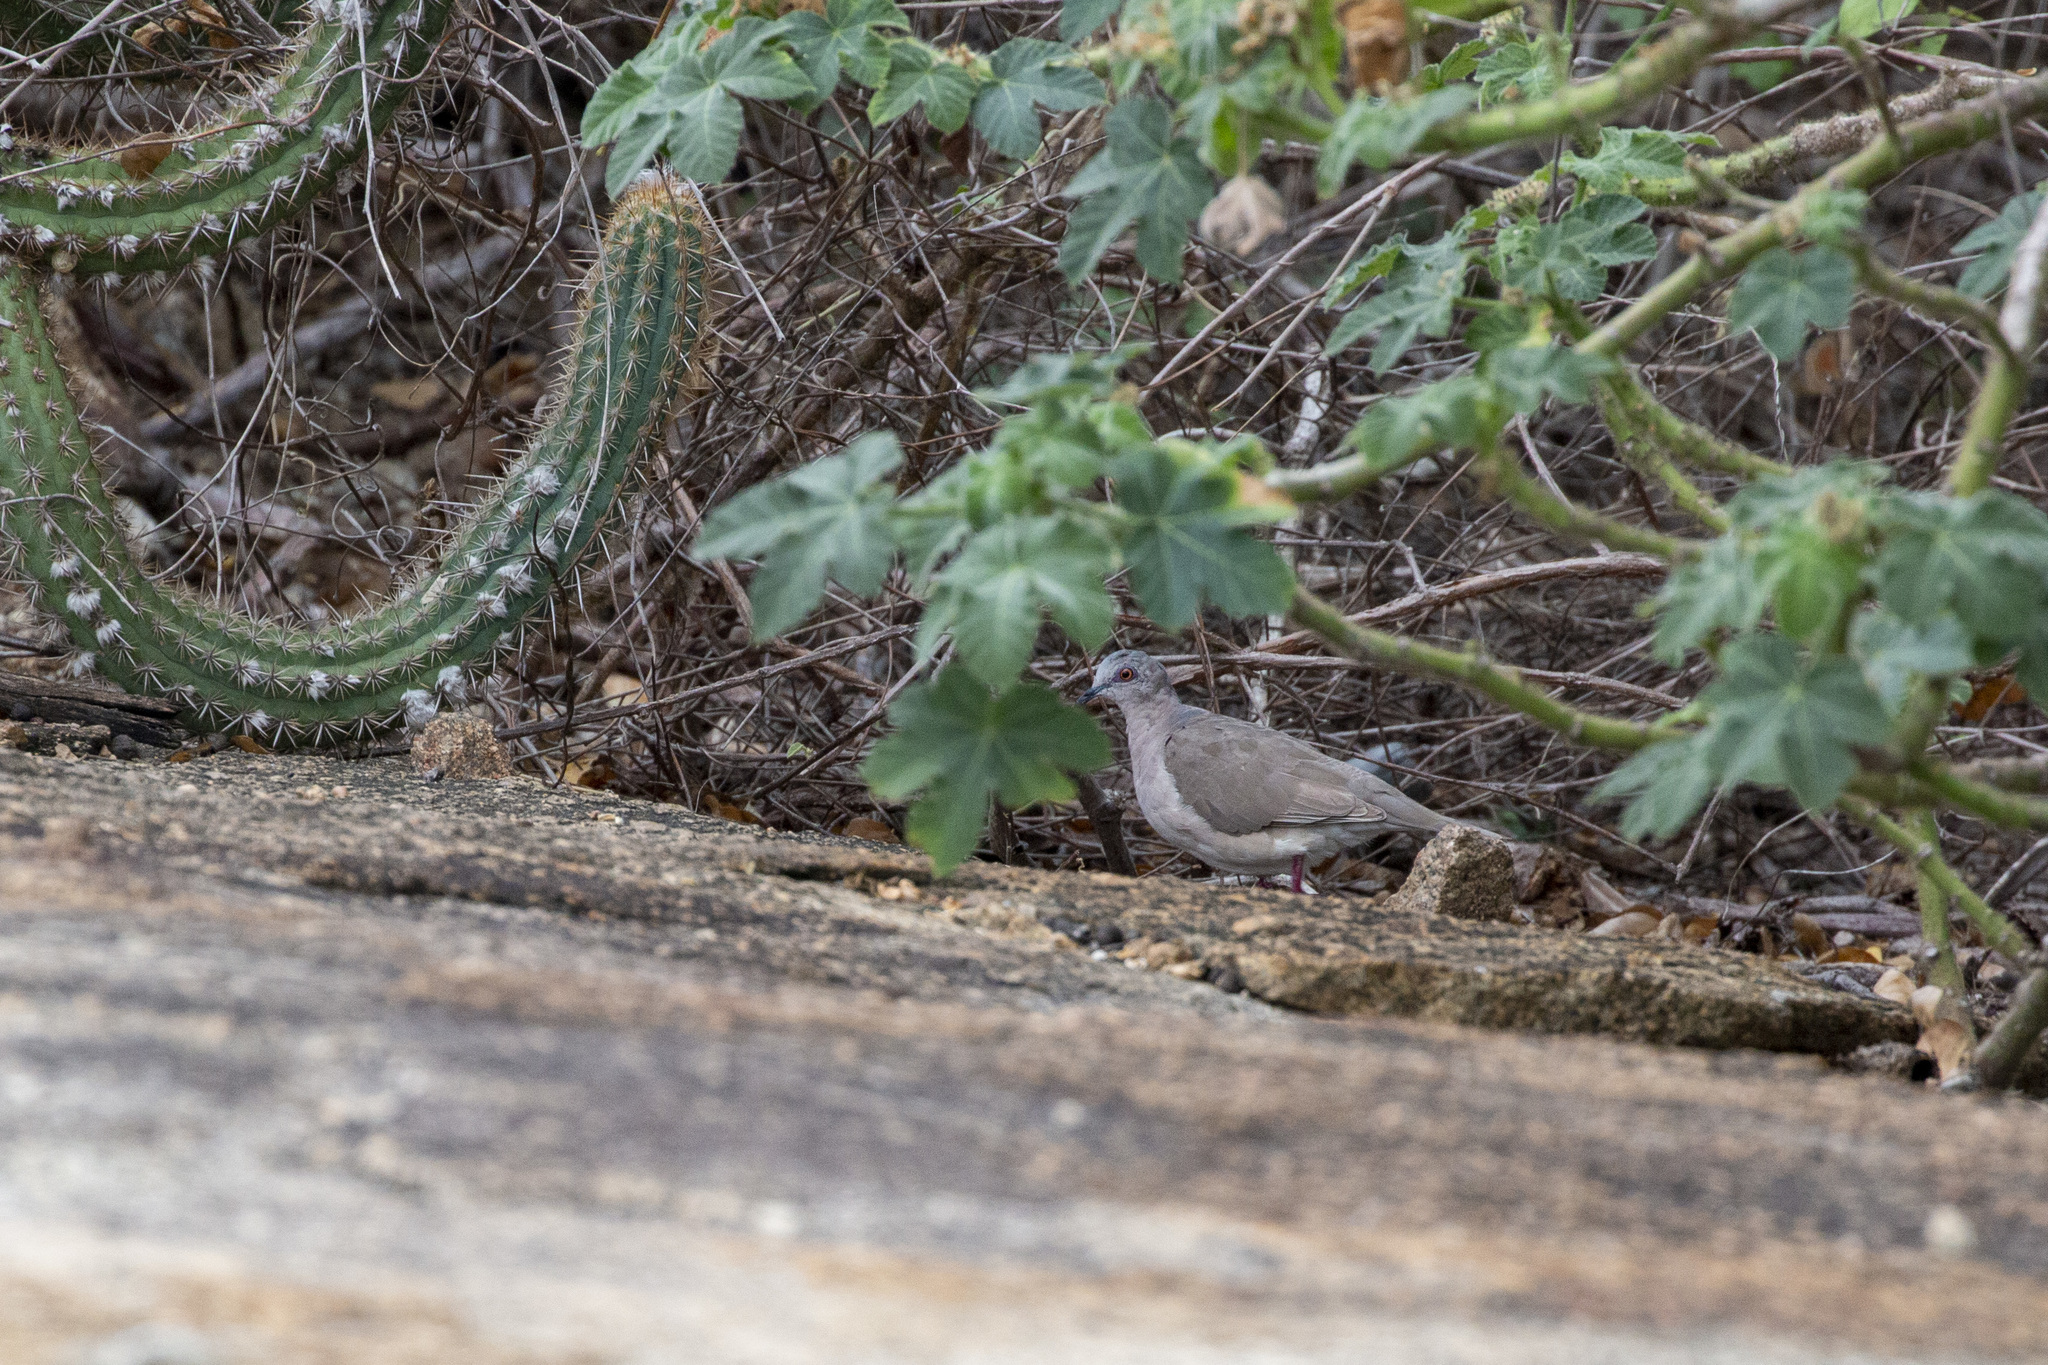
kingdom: Animalia
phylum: Chordata
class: Aves
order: Columbiformes
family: Columbidae
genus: Leptotila
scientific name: Leptotila verreauxi
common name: White-tipped dove
